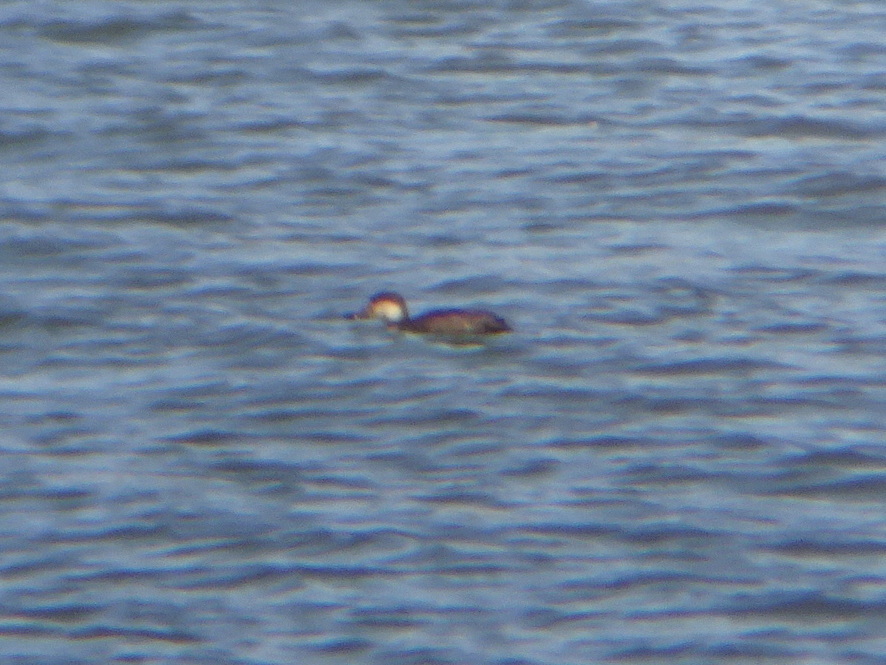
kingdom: Animalia
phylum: Chordata
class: Aves
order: Anseriformes
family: Anatidae
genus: Melanitta
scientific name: Melanitta americana
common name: Black scoter
